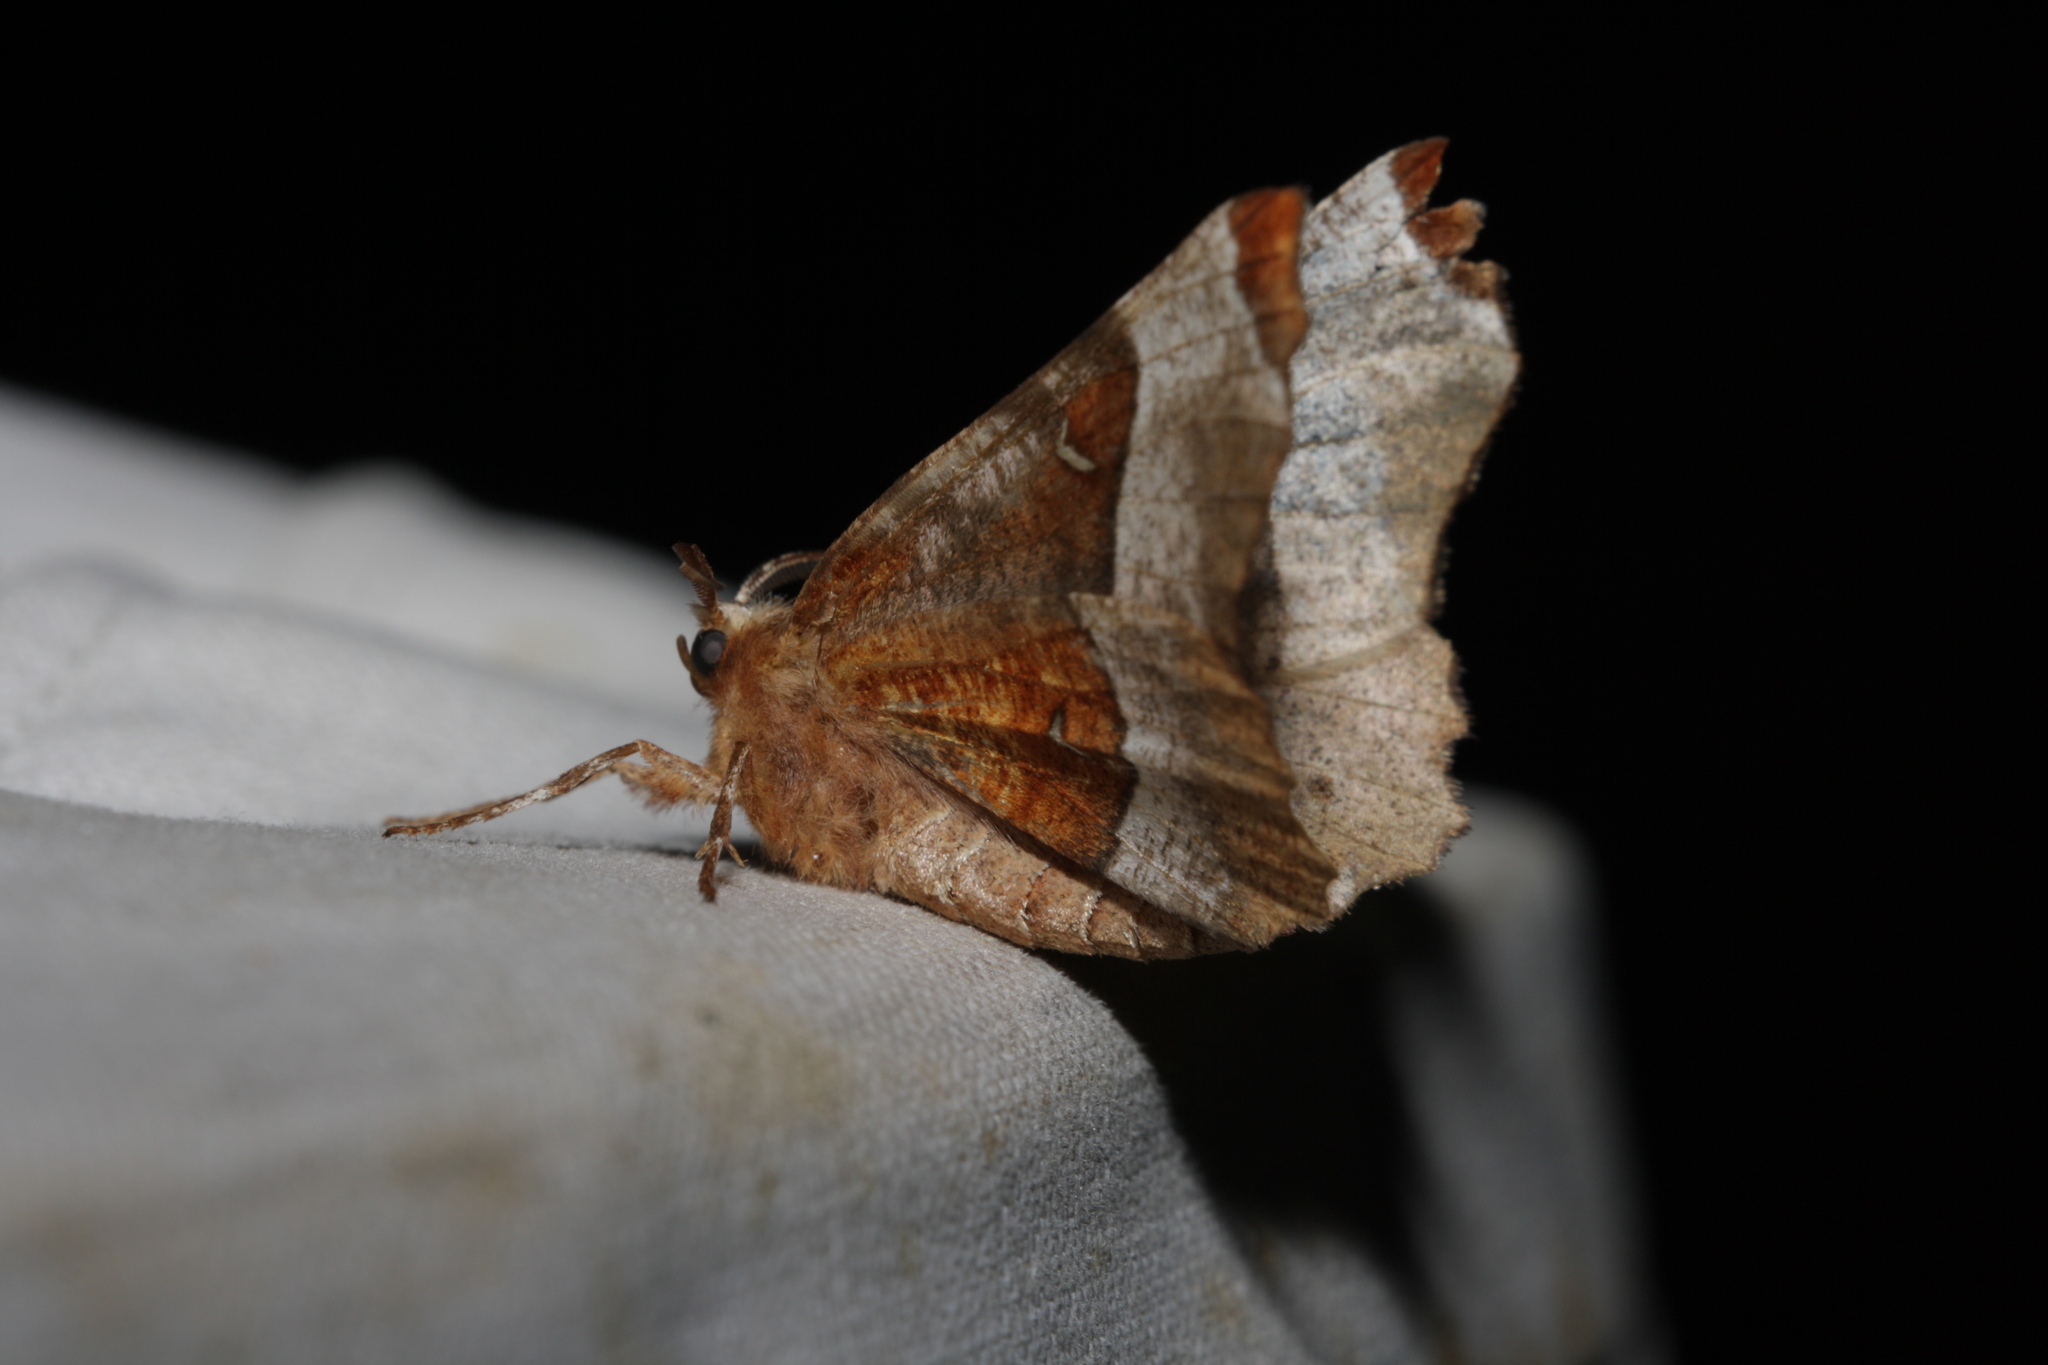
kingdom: Animalia
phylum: Arthropoda
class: Insecta
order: Lepidoptera
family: Geometridae
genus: Selenia
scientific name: Selenia tetralunaria
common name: Purple thorn
